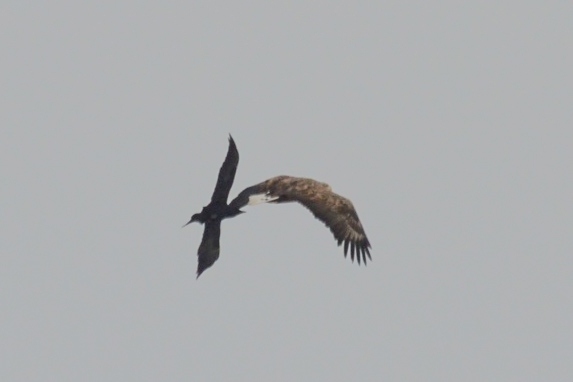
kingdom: Animalia
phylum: Chordata
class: Aves
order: Accipitriformes
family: Accipitridae
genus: Haliaeetus
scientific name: Haliaeetus albicilla
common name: White-tailed eagle
